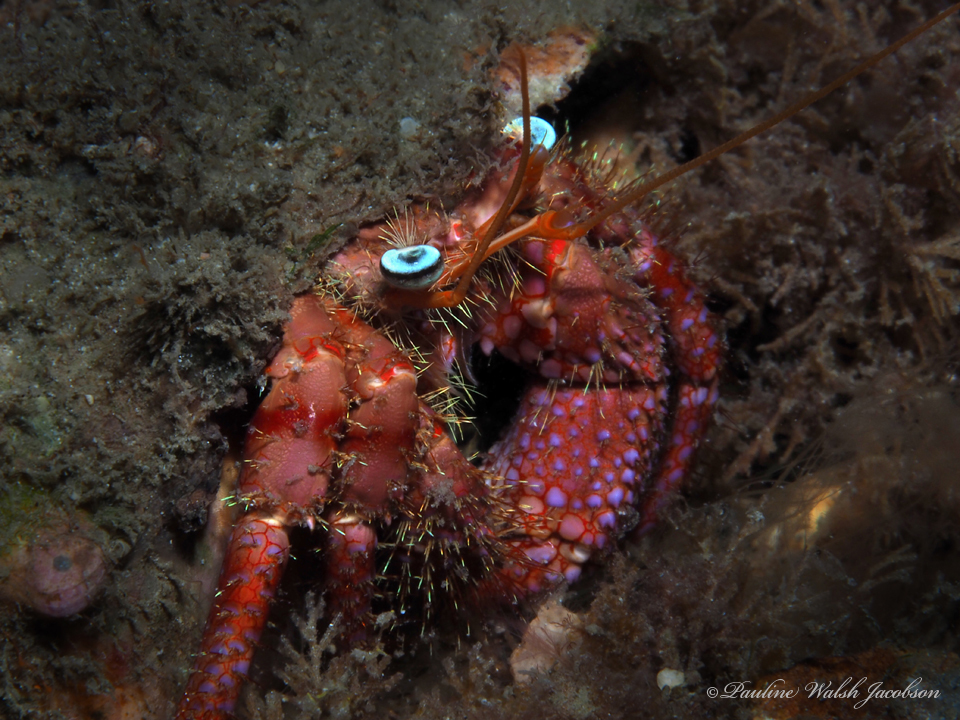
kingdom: Animalia
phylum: Arthropoda
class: Malacostraca
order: Decapoda
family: Diogenidae
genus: Dardanus
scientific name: Dardanus fucosus
